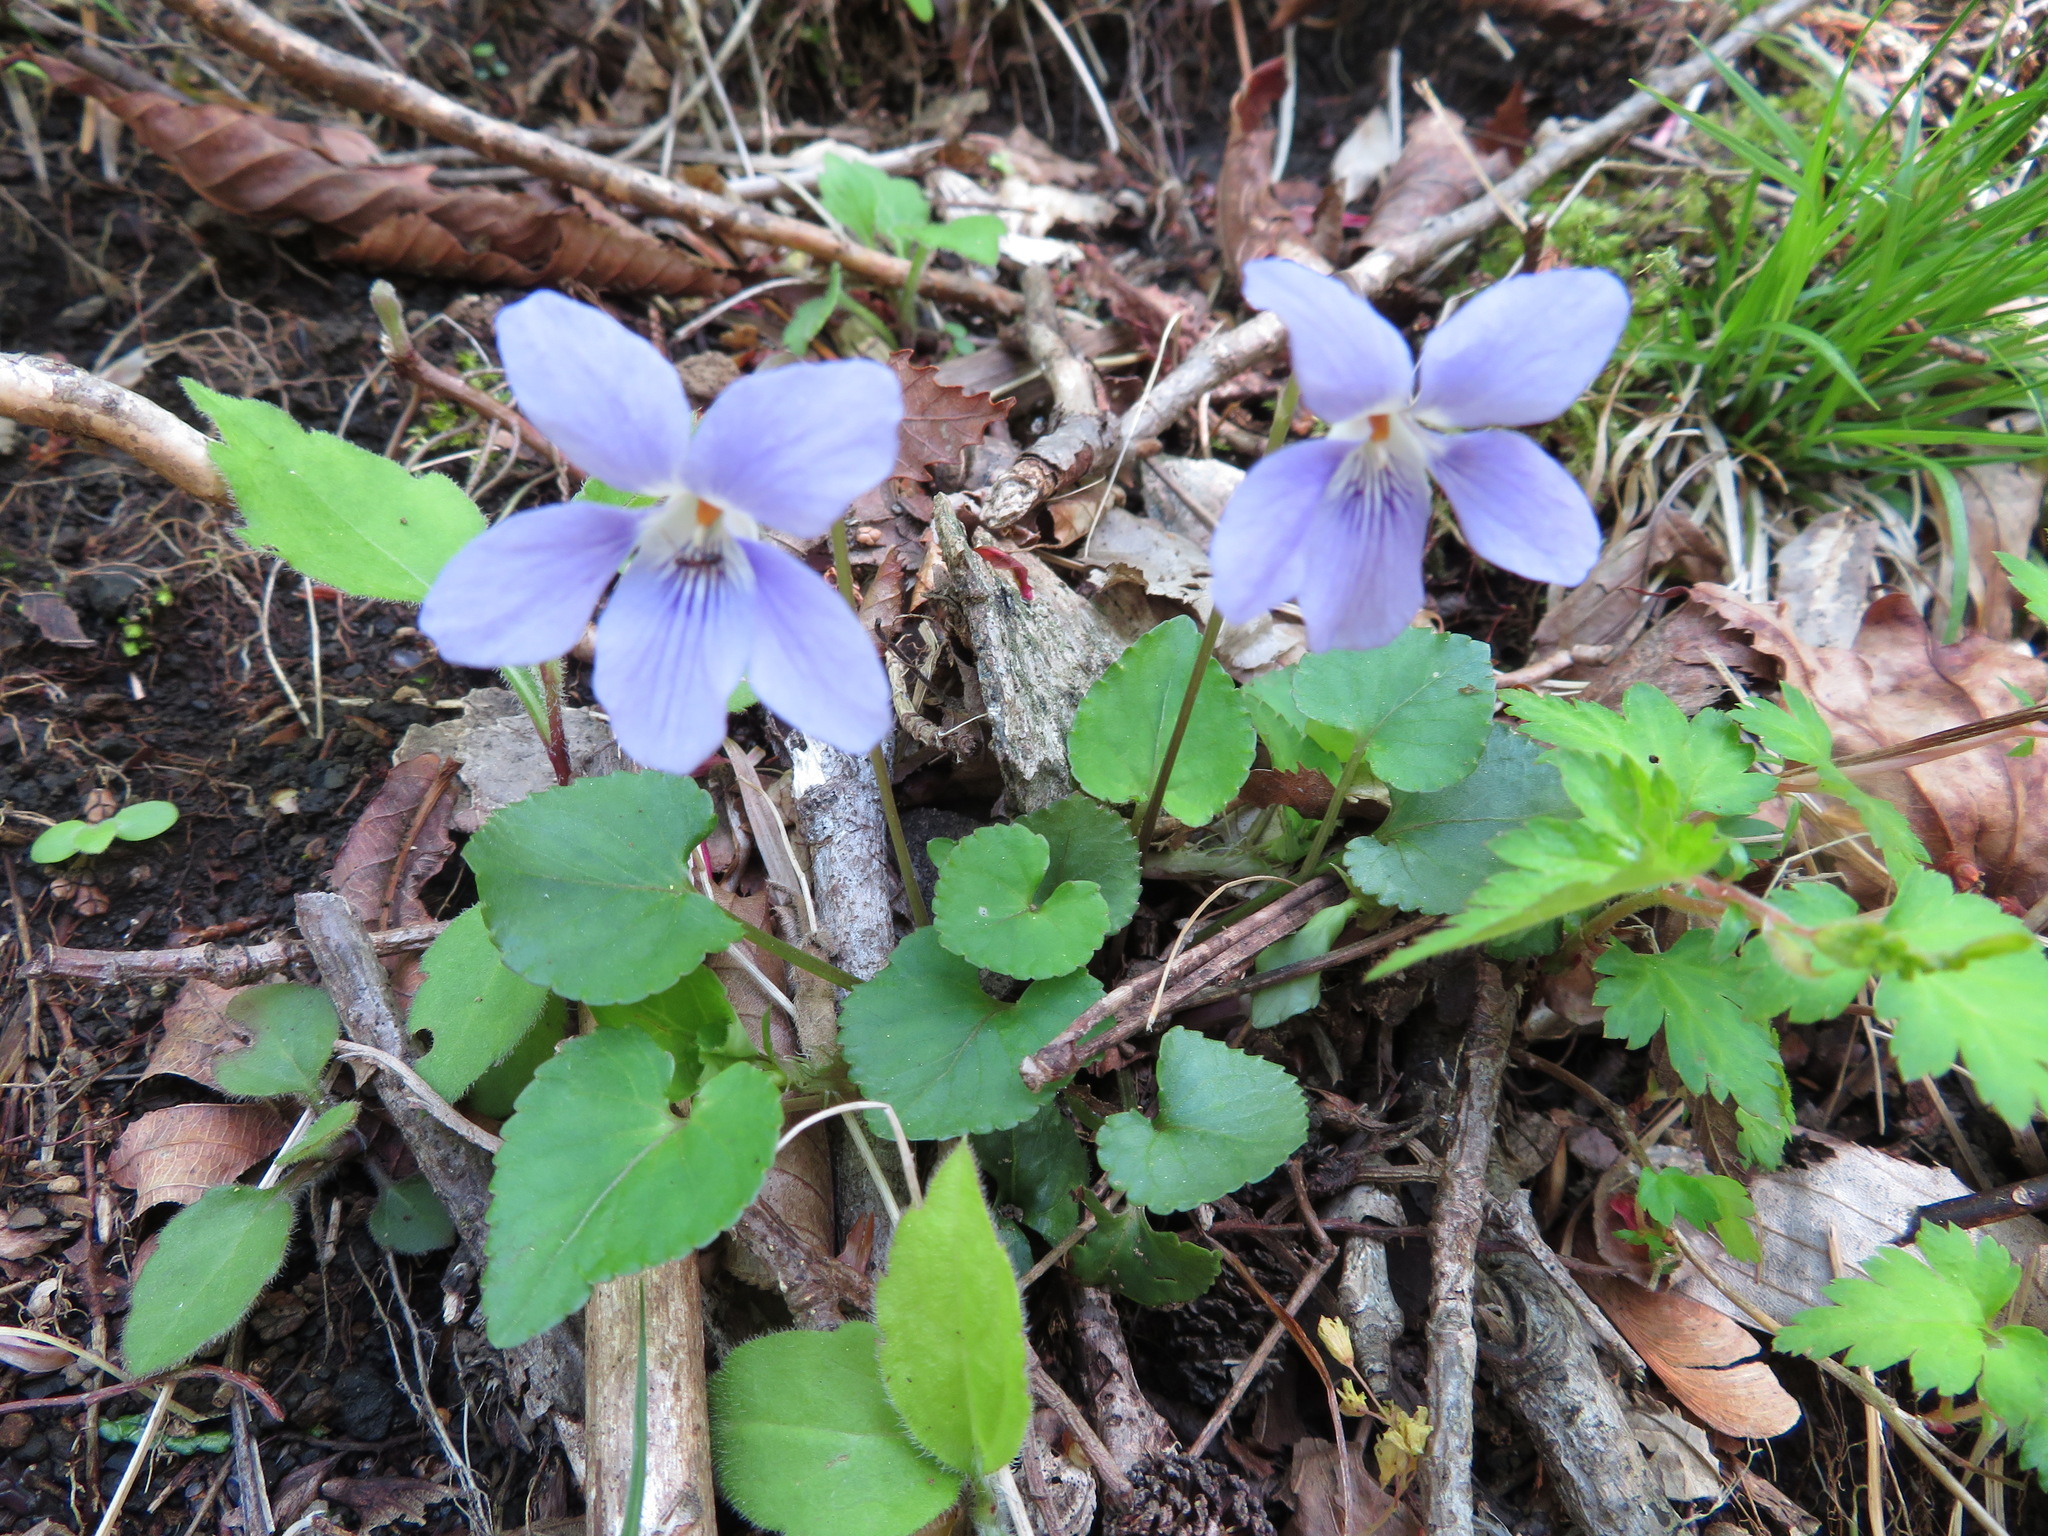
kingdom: Plantae
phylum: Tracheophyta
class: Magnoliopsida
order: Malpighiales
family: Violaceae
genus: Viola
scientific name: Viola grypoceras
